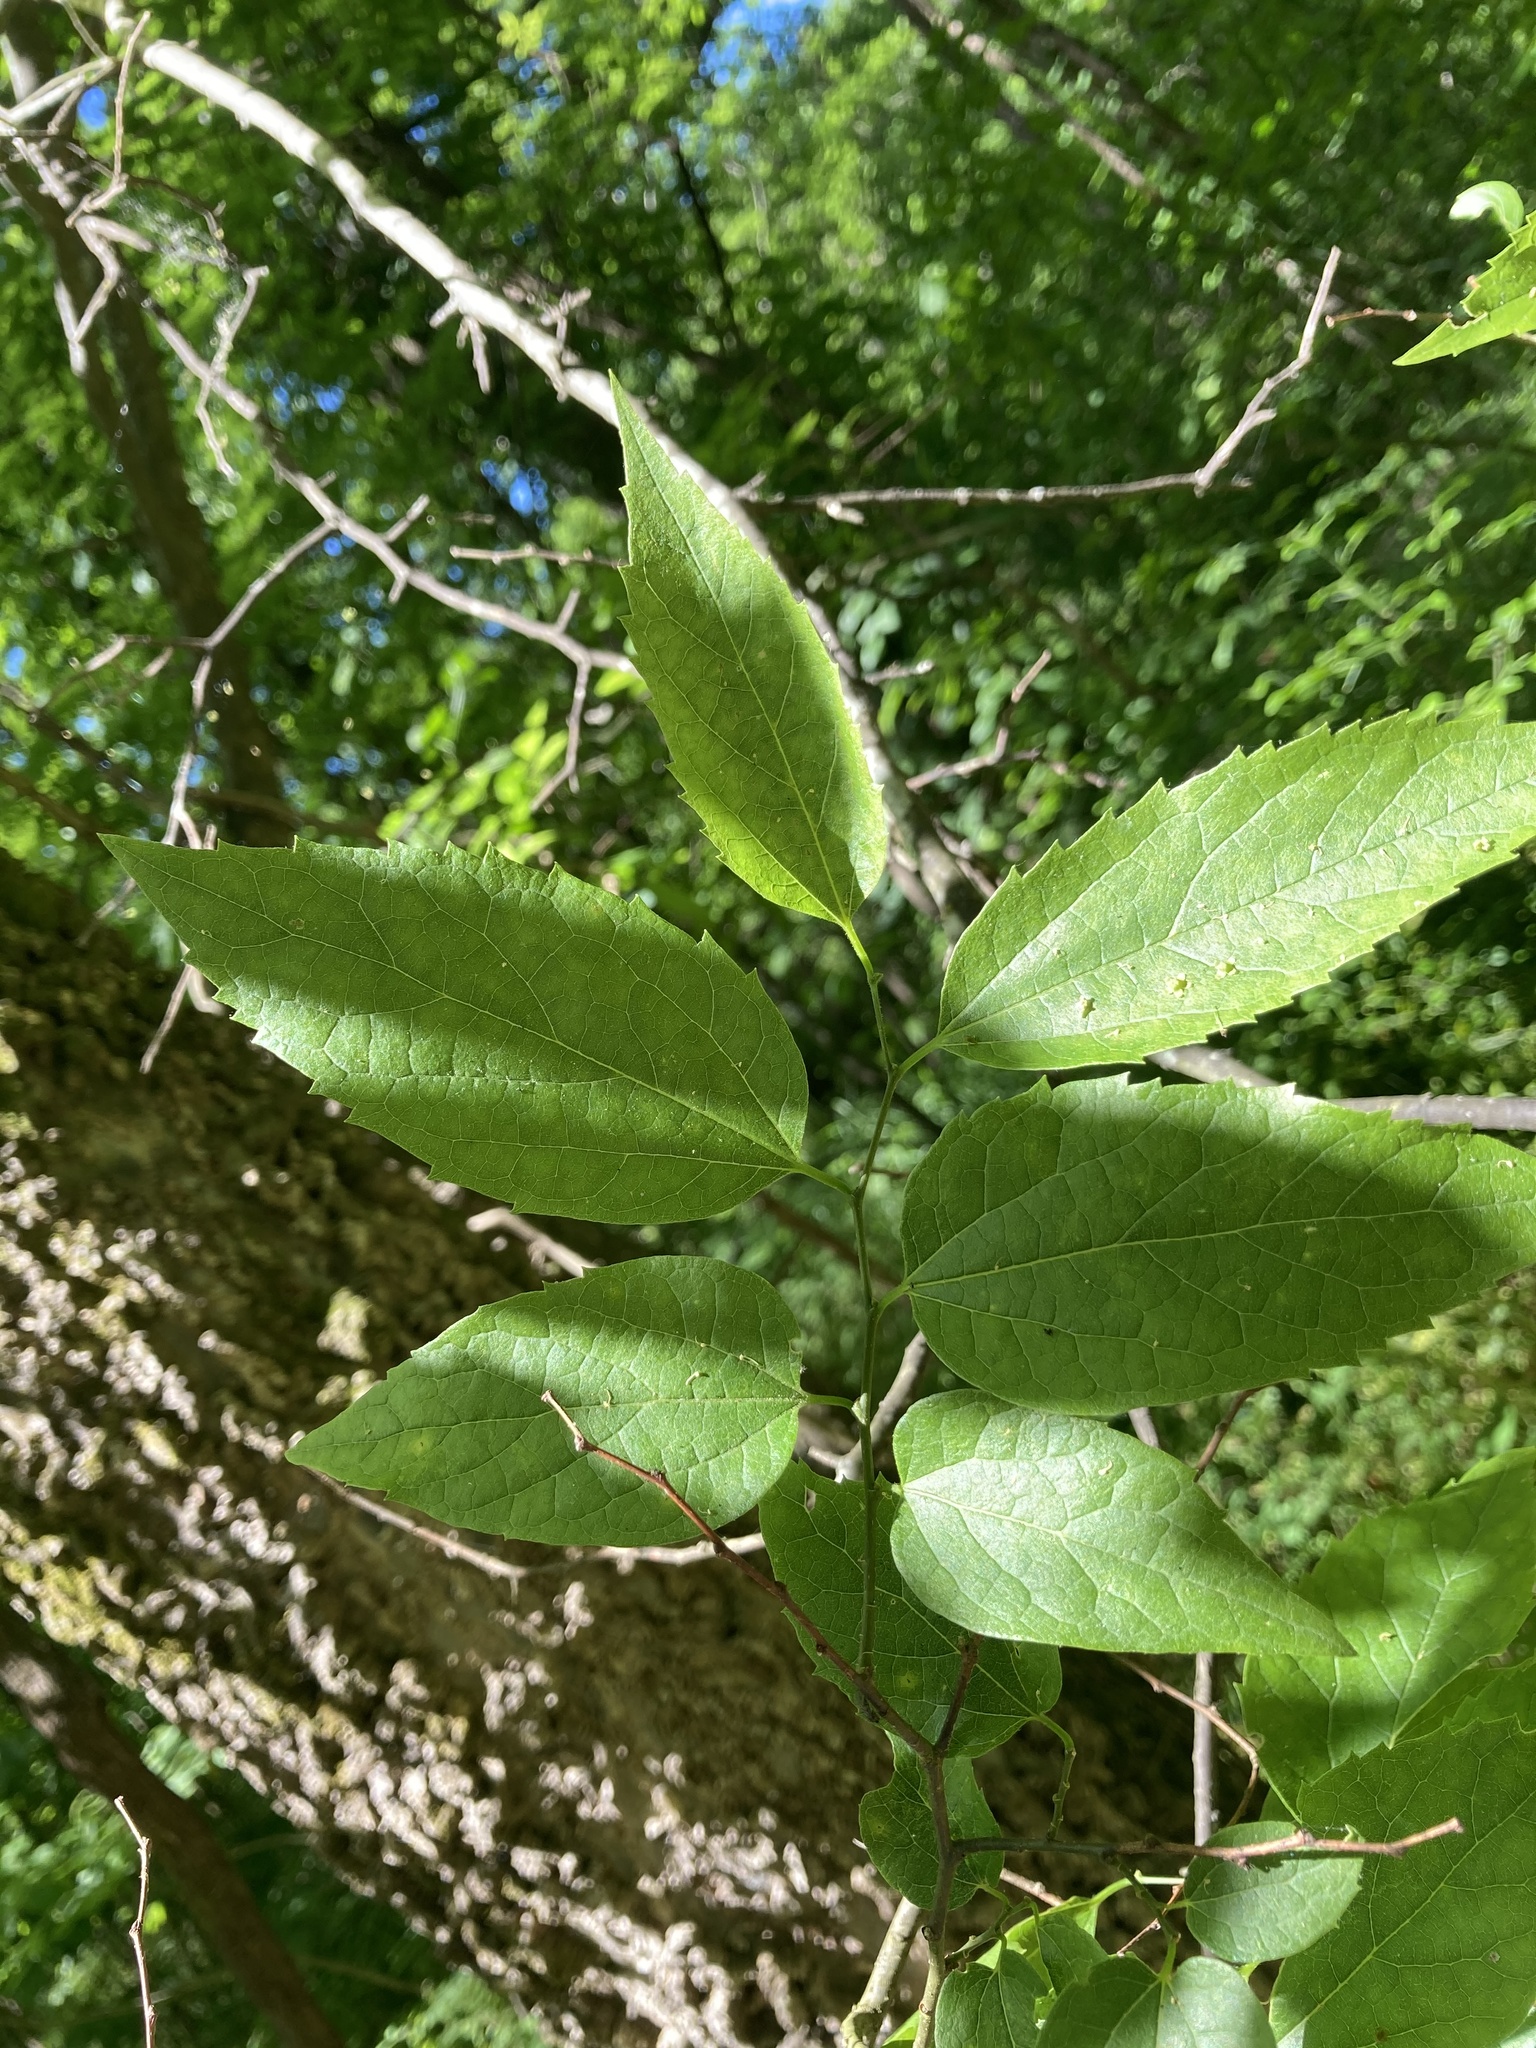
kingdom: Plantae
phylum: Tracheophyta
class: Magnoliopsida
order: Rosales
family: Cannabaceae
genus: Celtis
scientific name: Celtis occidentalis
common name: Common hackberry
